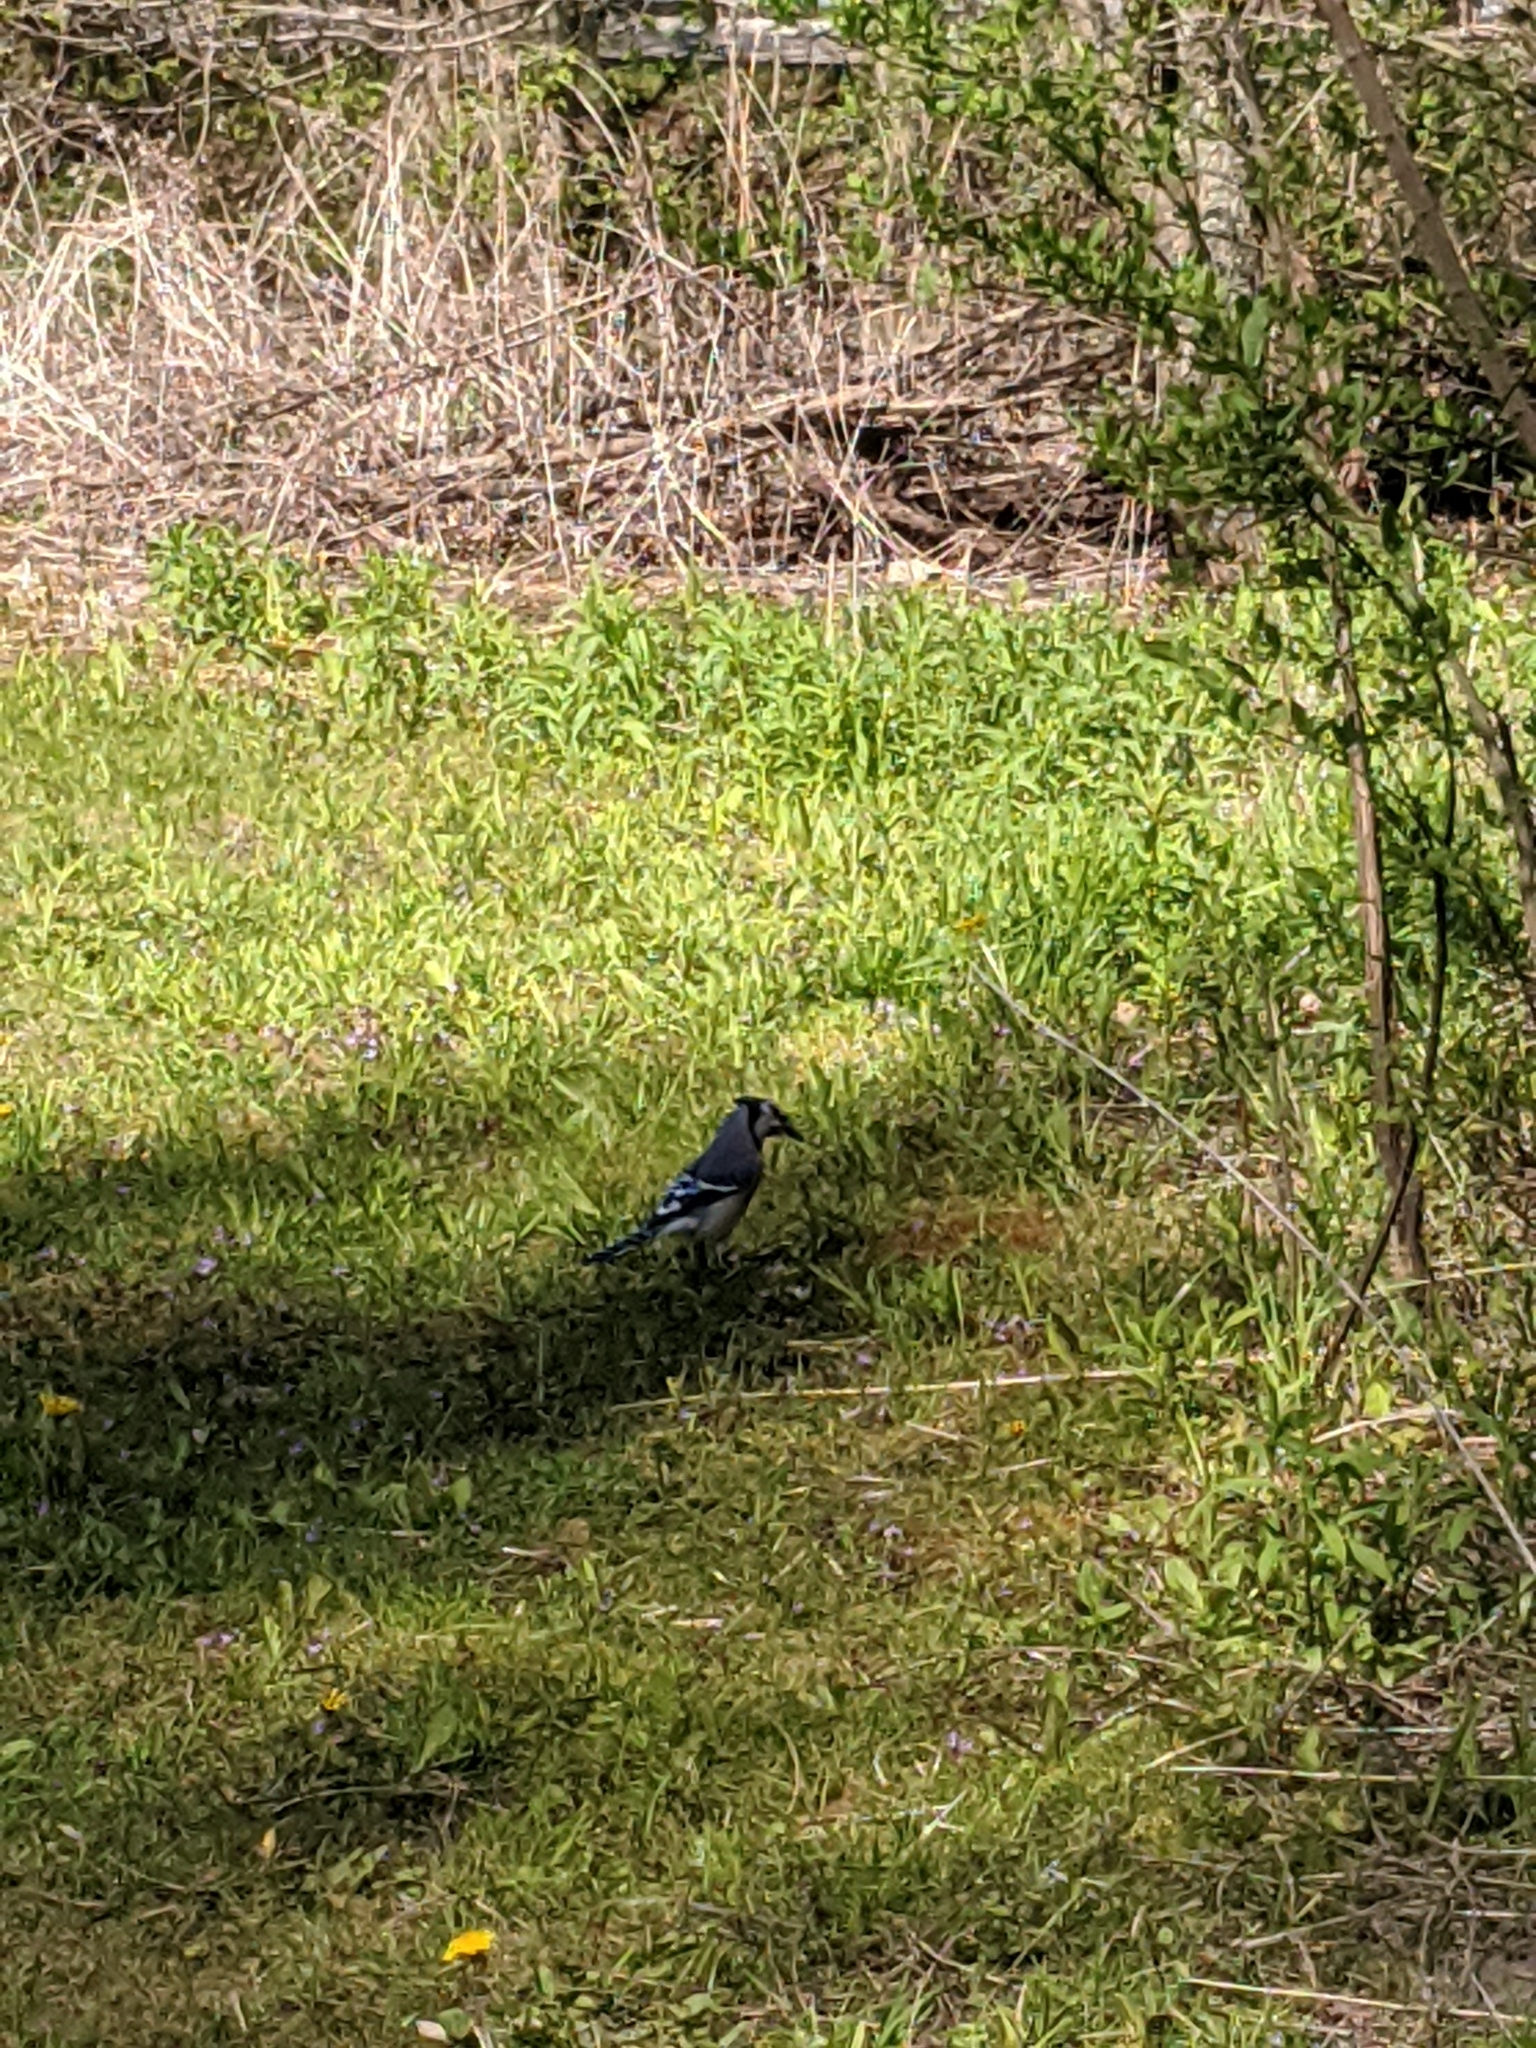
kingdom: Animalia
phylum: Chordata
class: Aves
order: Passeriformes
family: Corvidae
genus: Cyanocitta
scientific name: Cyanocitta cristata
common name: Blue jay
